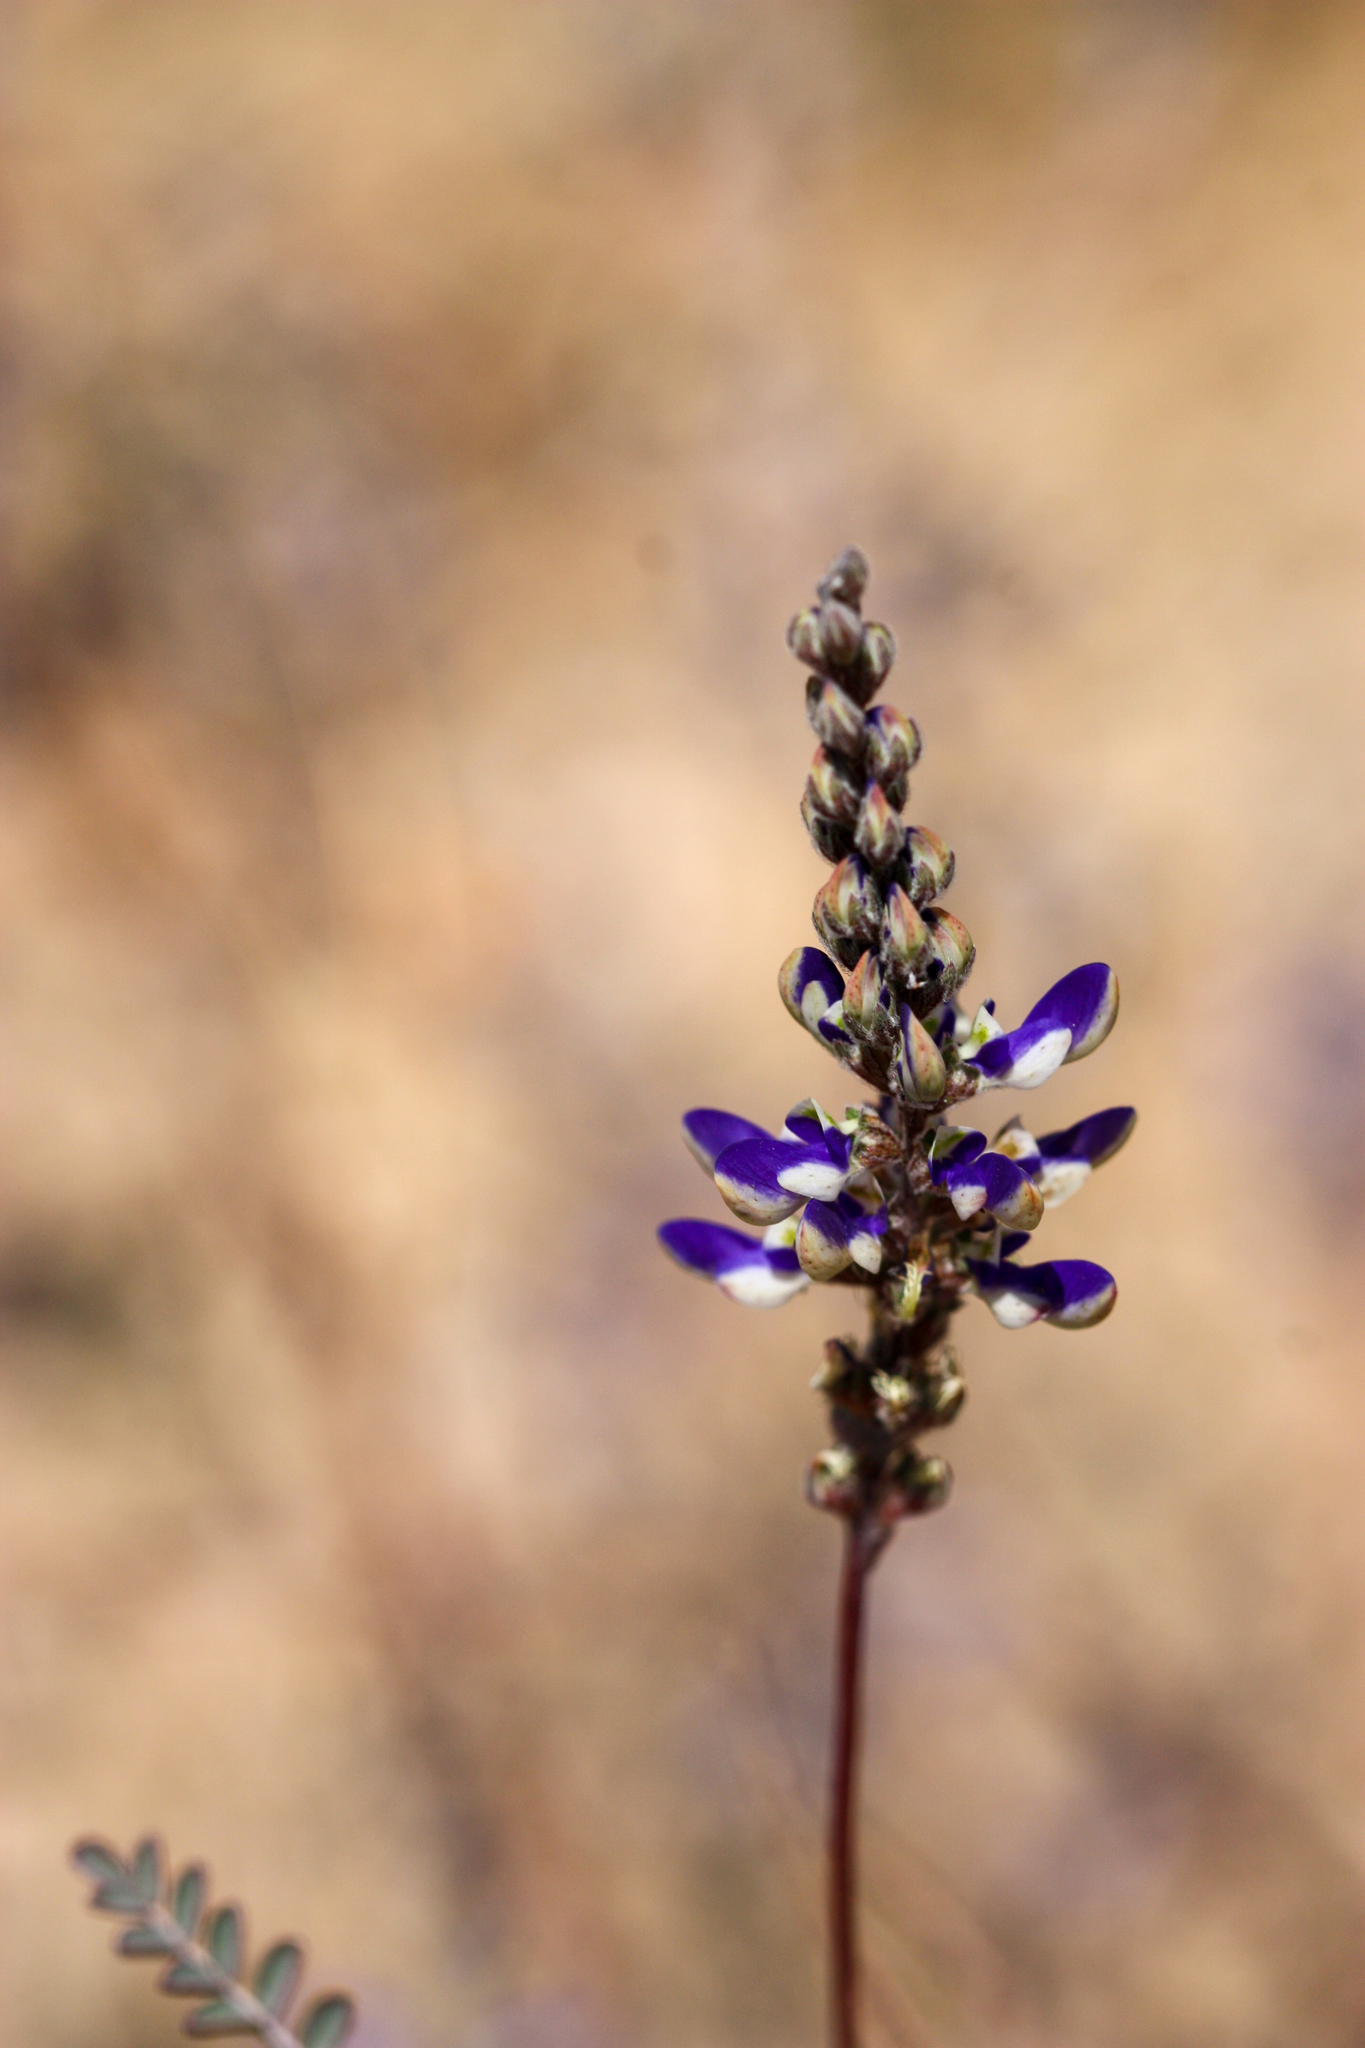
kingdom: Plantae
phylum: Tracheophyta
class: Magnoliopsida
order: Fabales
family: Fabaceae
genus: Marina
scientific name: Marina parryi
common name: Parry's marina
